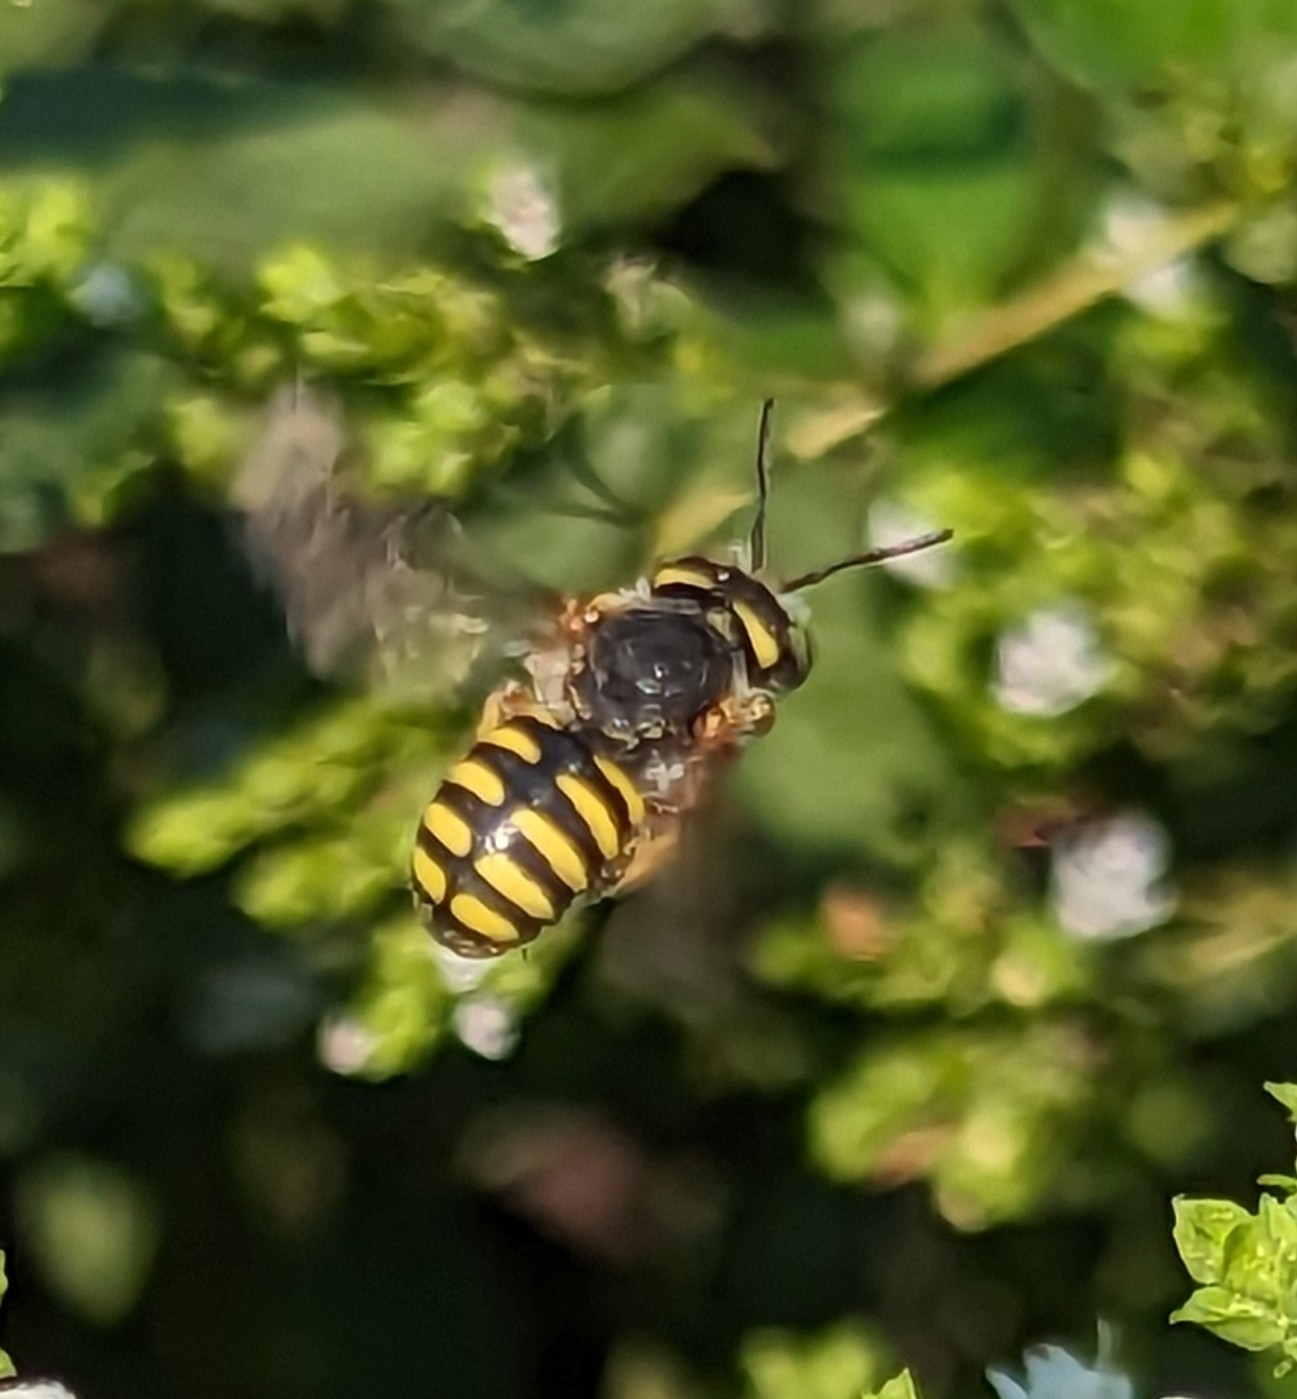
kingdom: Animalia
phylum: Arthropoda
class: Insecta
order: Hymenoptera
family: Megachilidae
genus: Anthidium
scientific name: Anthidium oblongatum
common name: Oblong wool carder bee
